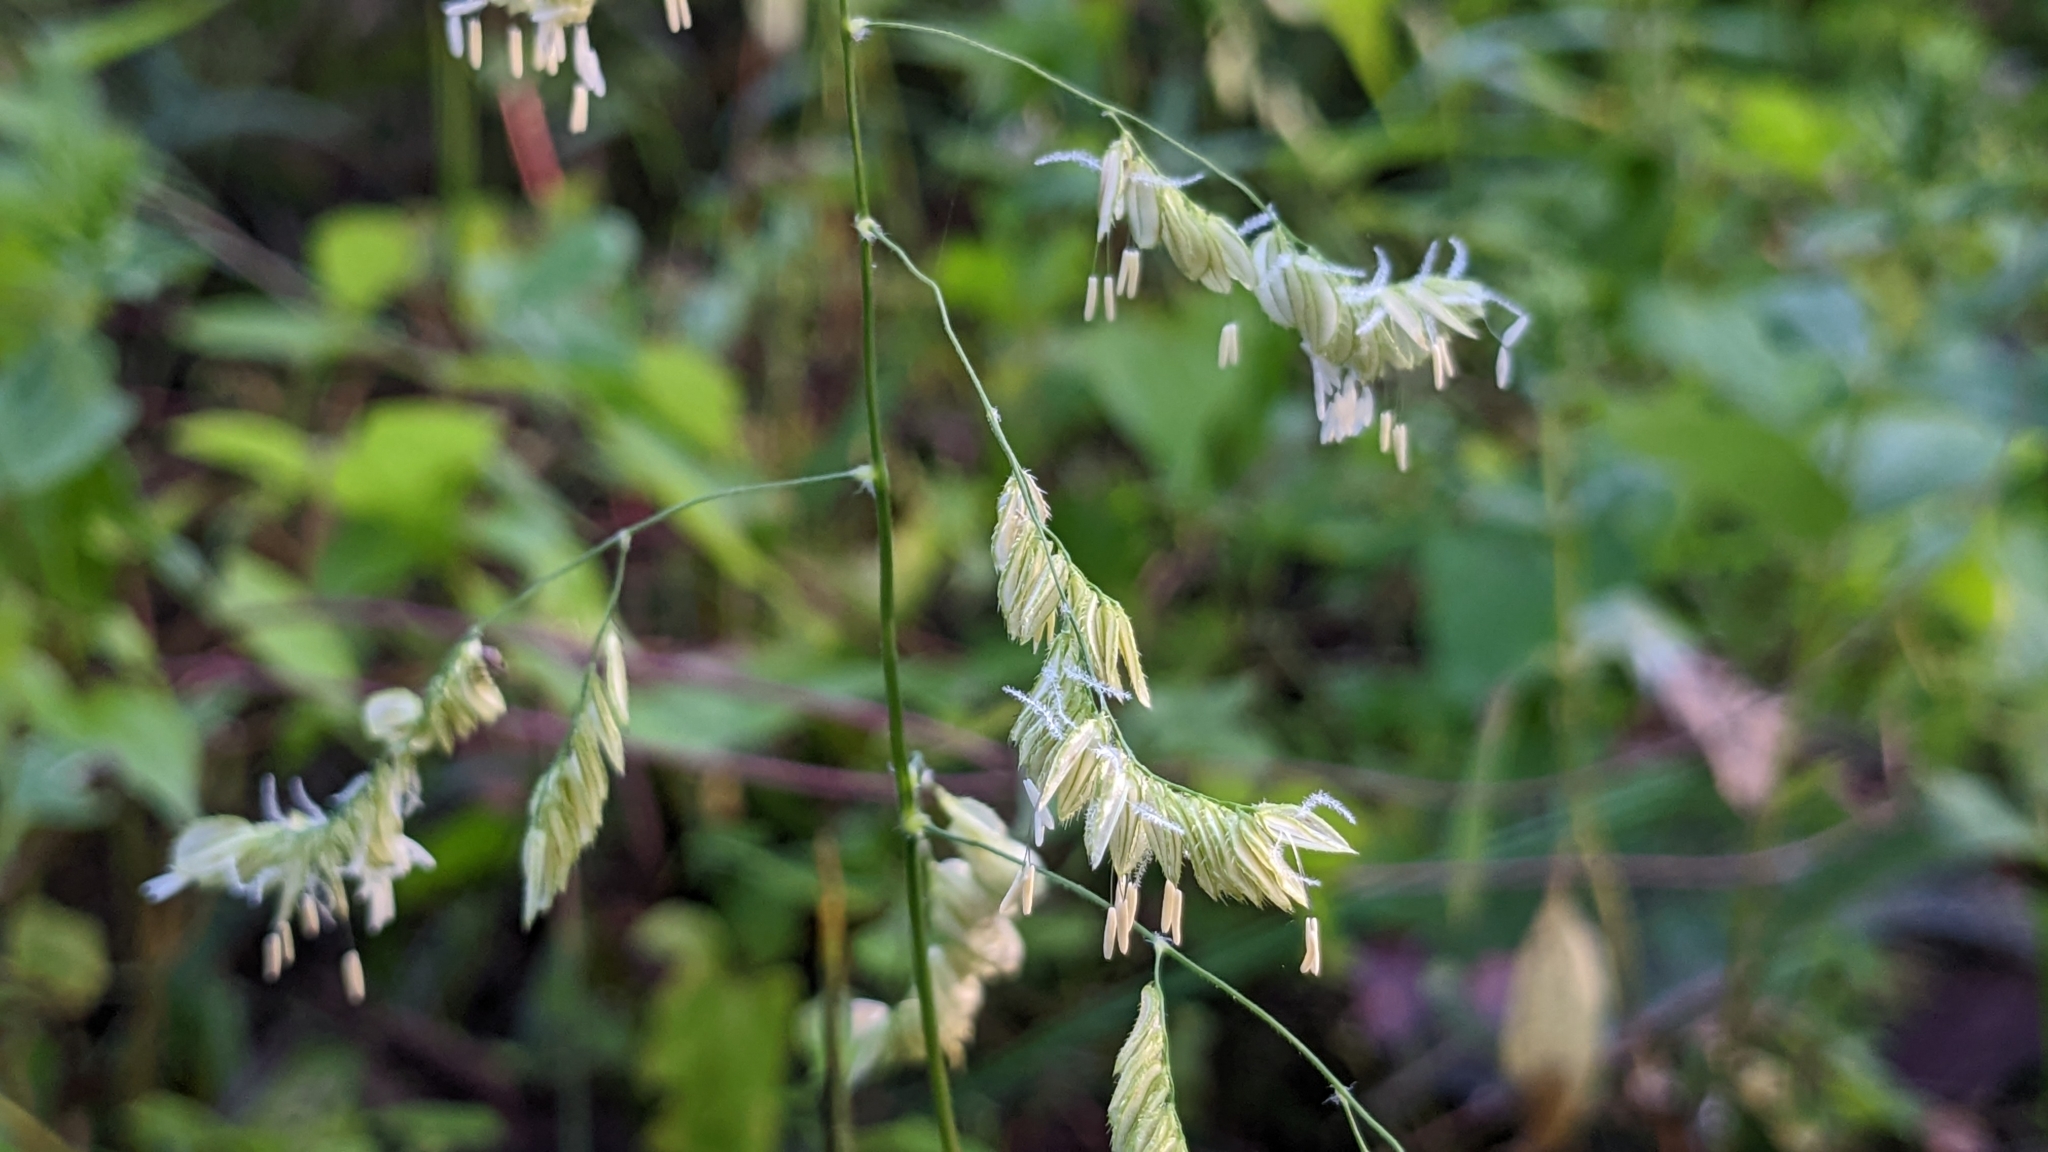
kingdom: Plantae
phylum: Tracheophyta
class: Liliopsida
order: Poales
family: Poaceae
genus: Leersia
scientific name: Leersia lenticularis
